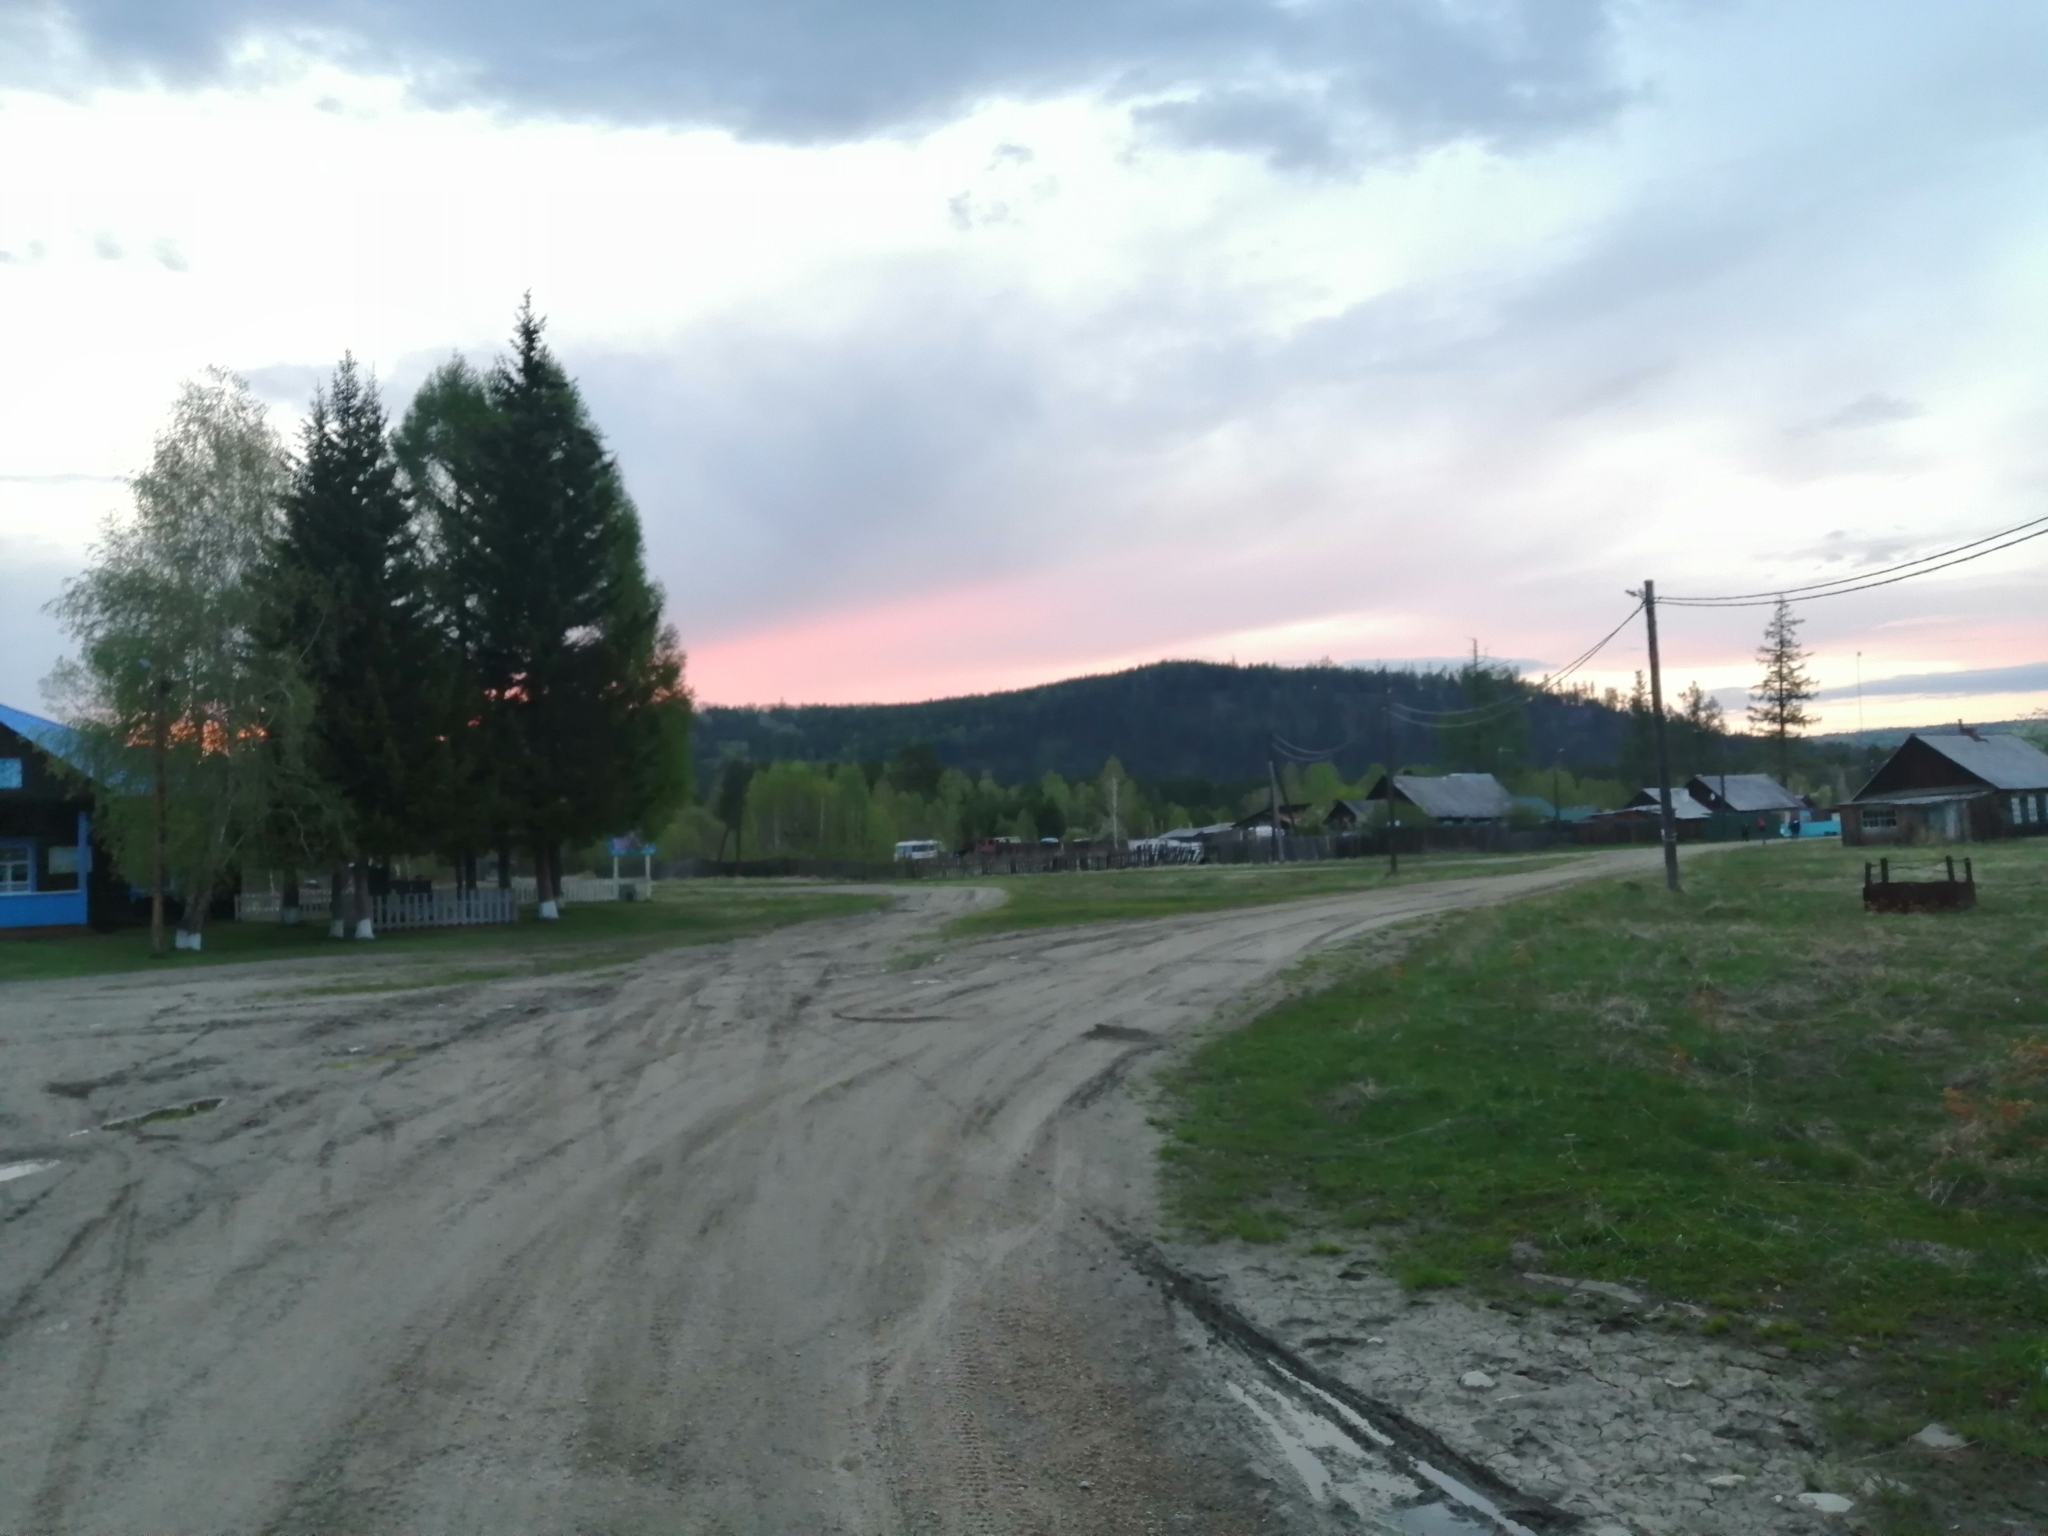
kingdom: Plantae
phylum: Tracheophyta
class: Pinopsida
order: Pinales
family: Pinaceae
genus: Larix
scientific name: Larix sibirica
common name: Siberian larch
